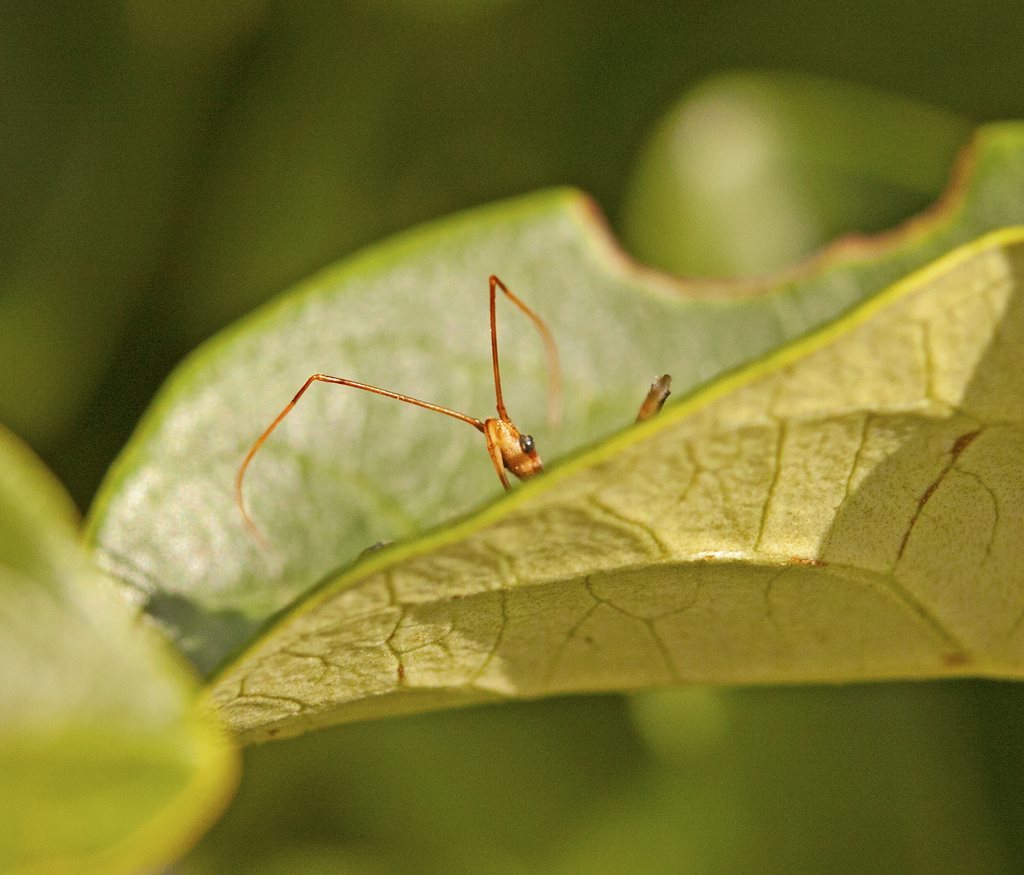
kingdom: Animalia
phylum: Arthropoda
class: Insecta
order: Hemiptera
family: Reduviidae
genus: Pristhesancus
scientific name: Pristhesancus plagipennis
